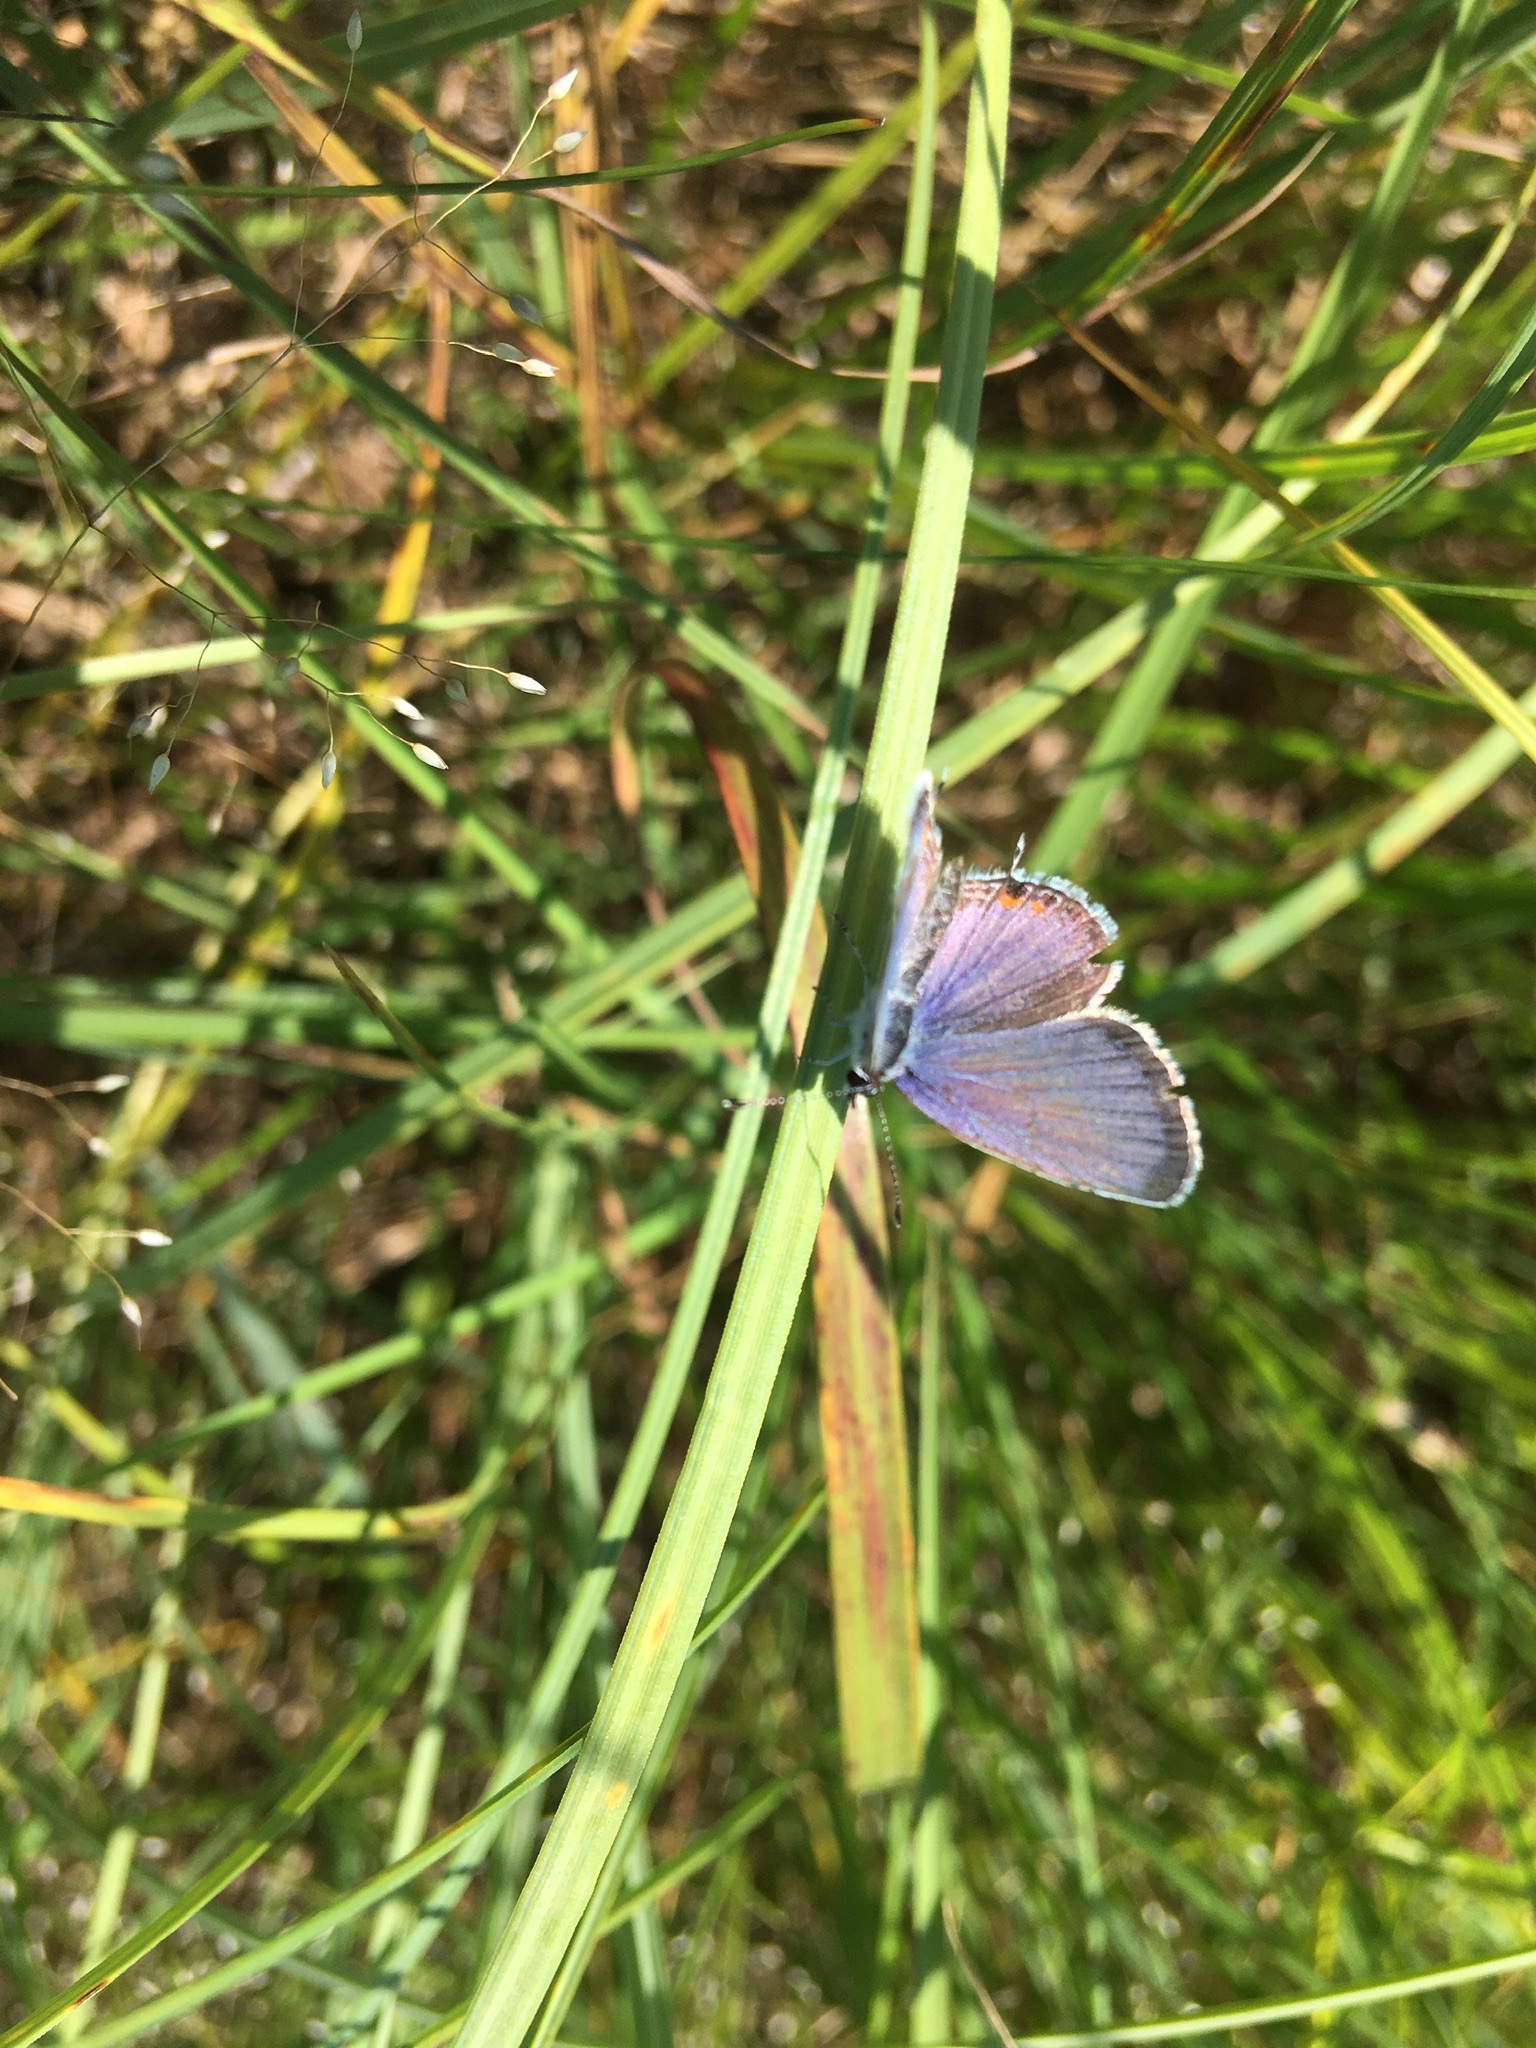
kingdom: Animalia
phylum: Arthropoda
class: Insecta
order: Lepidoptera
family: Lycaenidae
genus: Elkalyce
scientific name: Elkalyce comyntas
